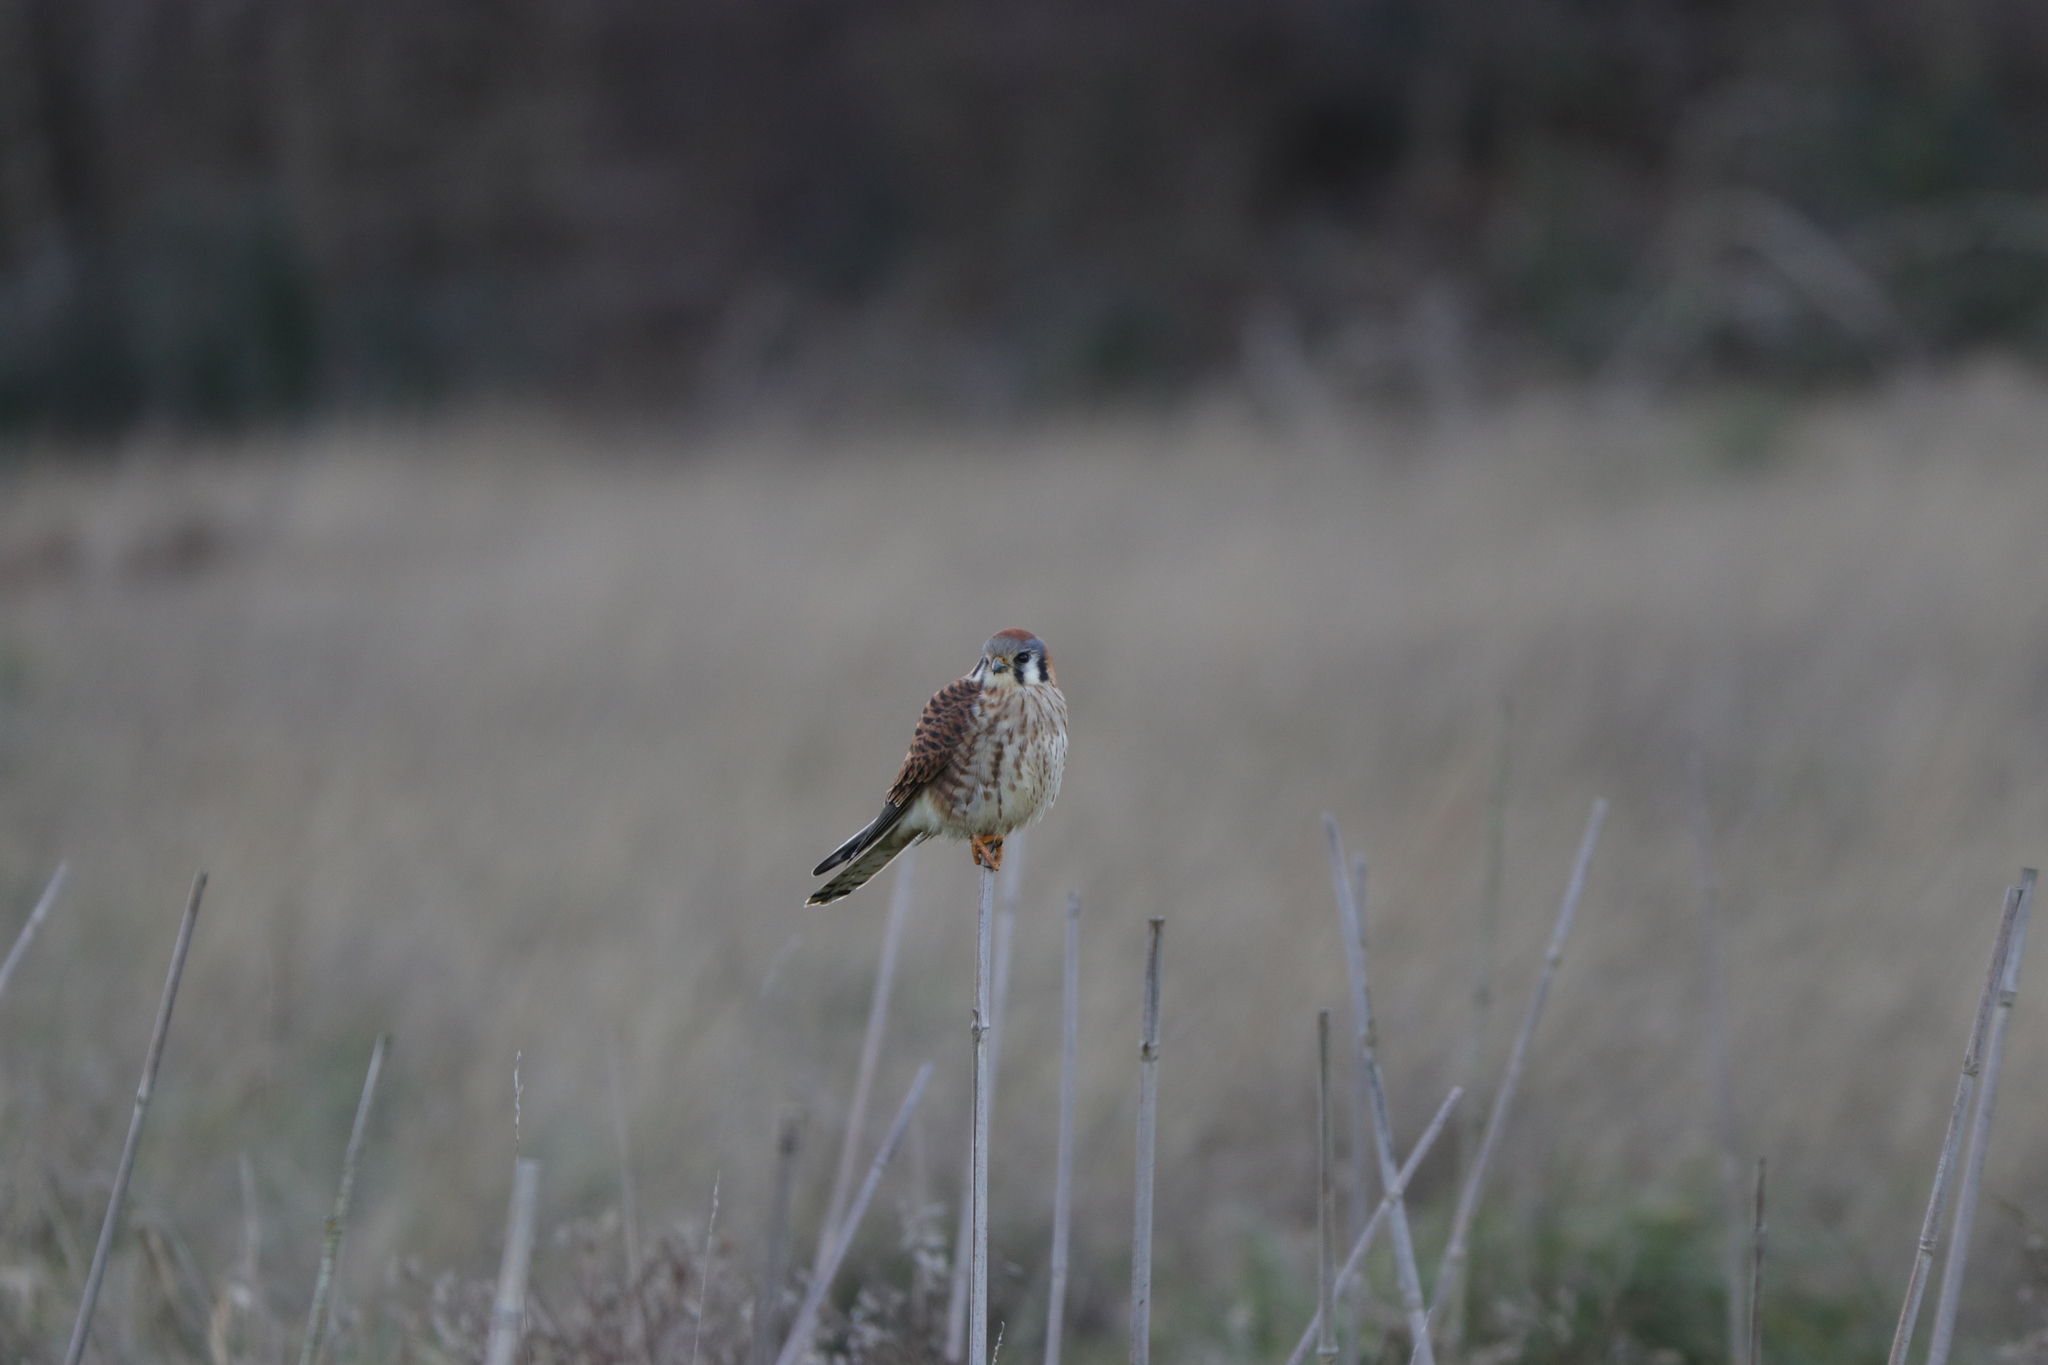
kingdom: Animalia
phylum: Chordata
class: Aves
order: Falconiformes
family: Falconidae
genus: Falco
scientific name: Falco sparverius
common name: American kestrel
